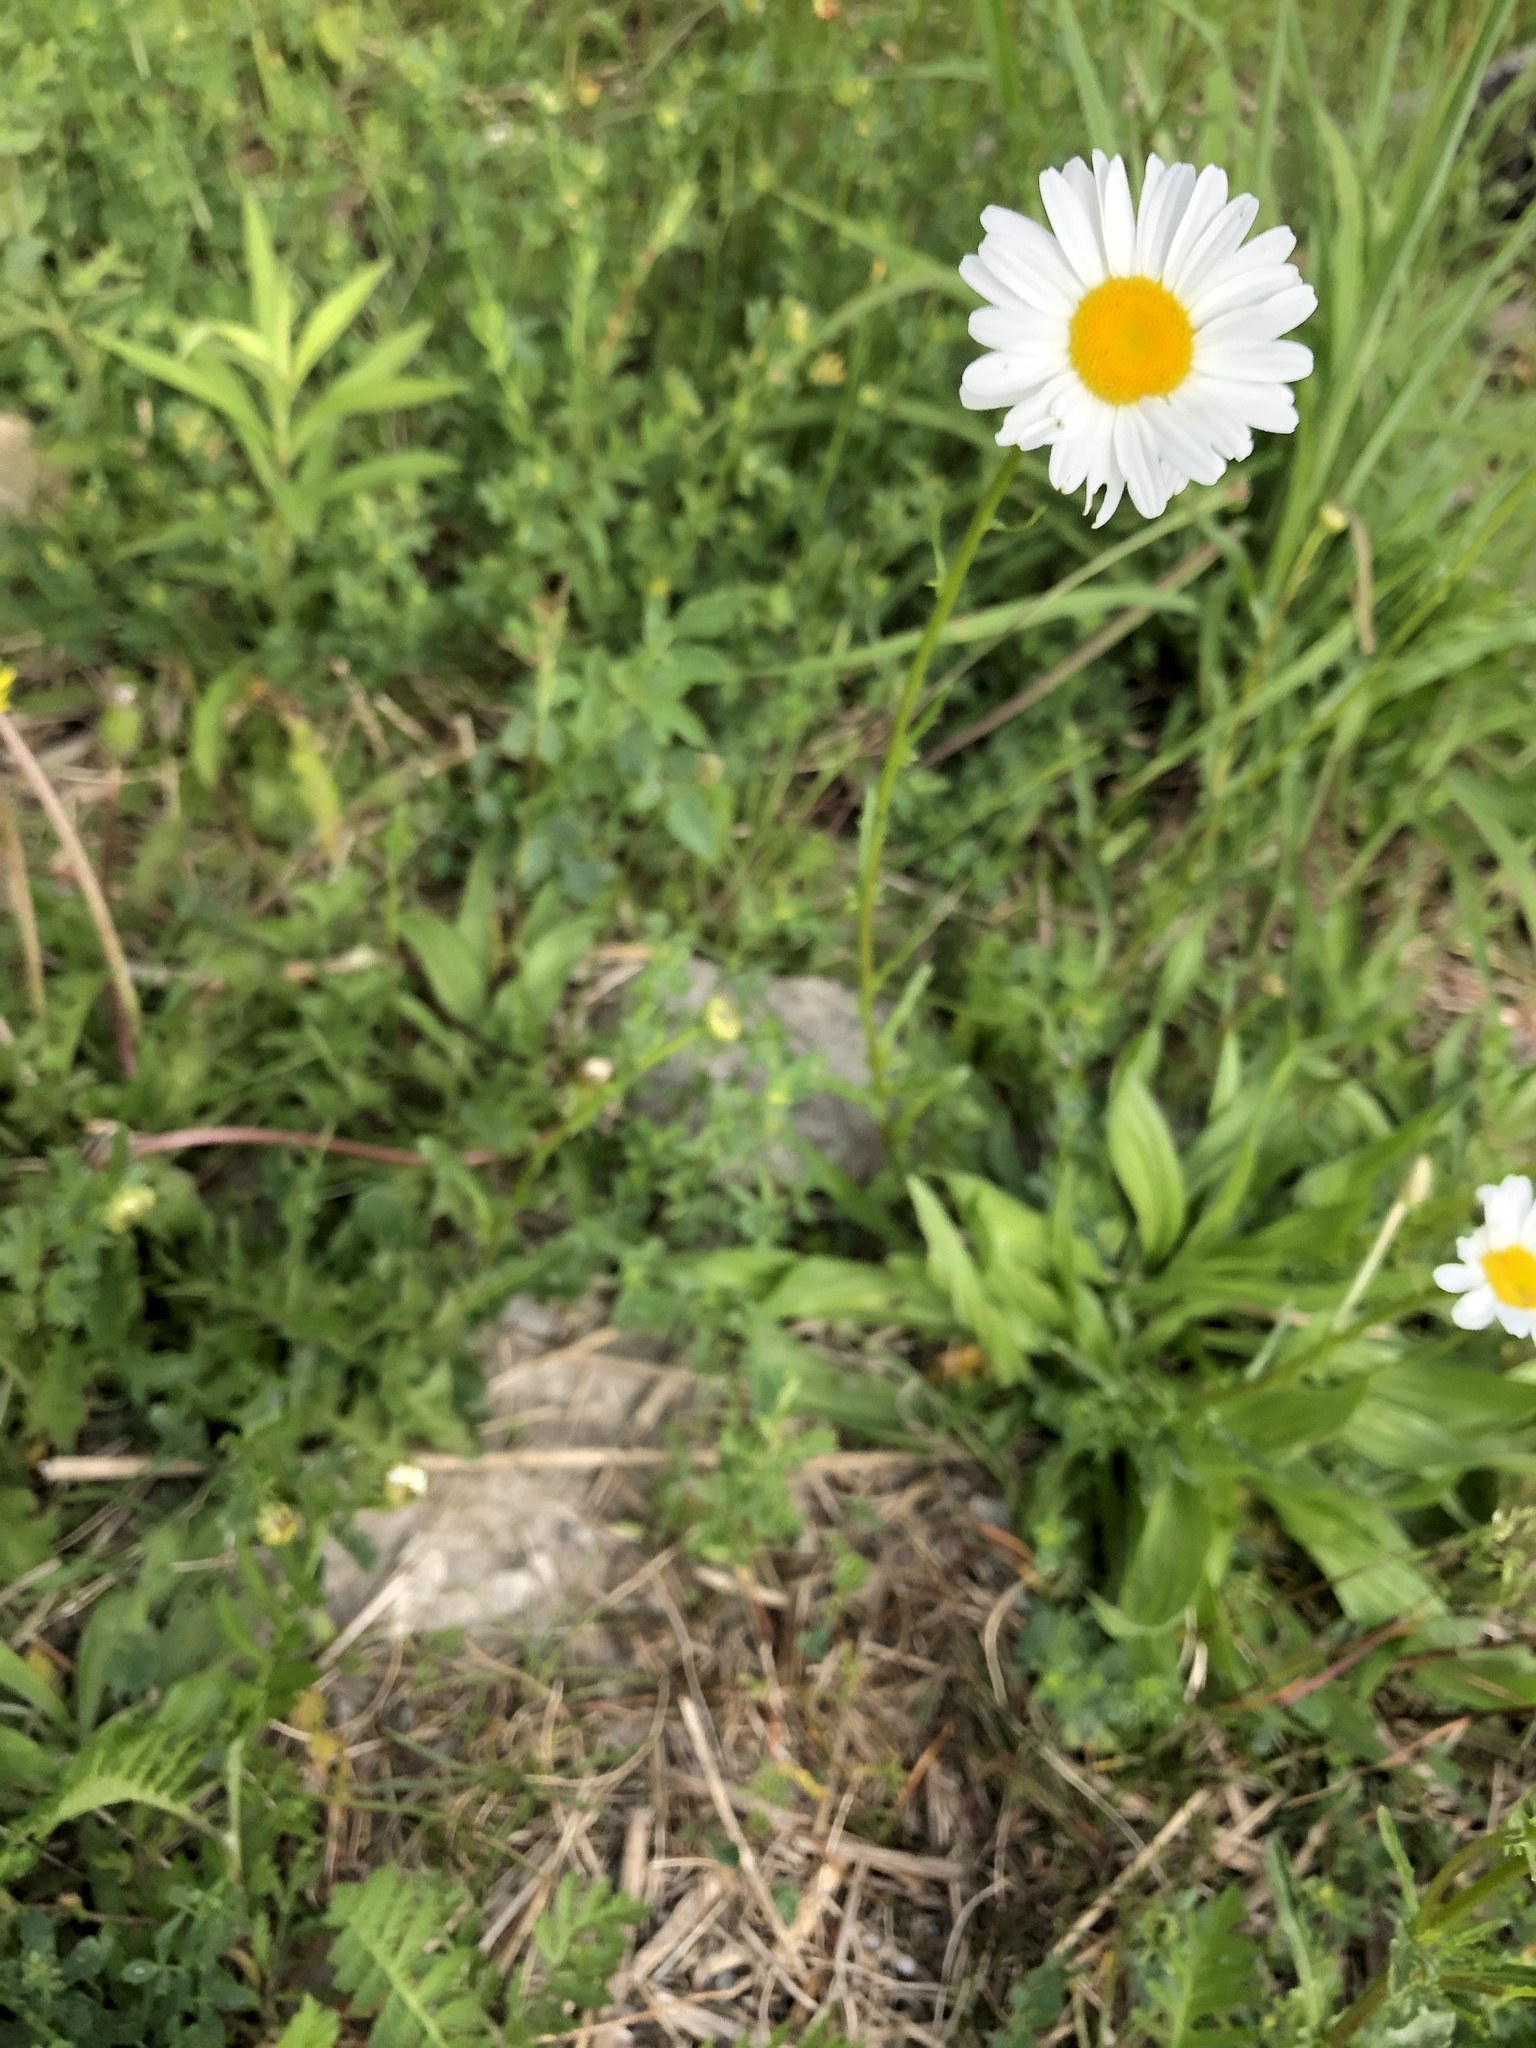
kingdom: Plantae
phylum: Tracheophyta
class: Magnoliopsida
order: Asterales
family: Asteraceae
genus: Leucanthemum
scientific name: Leucanthemum vulgare
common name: Oxeye daisy
